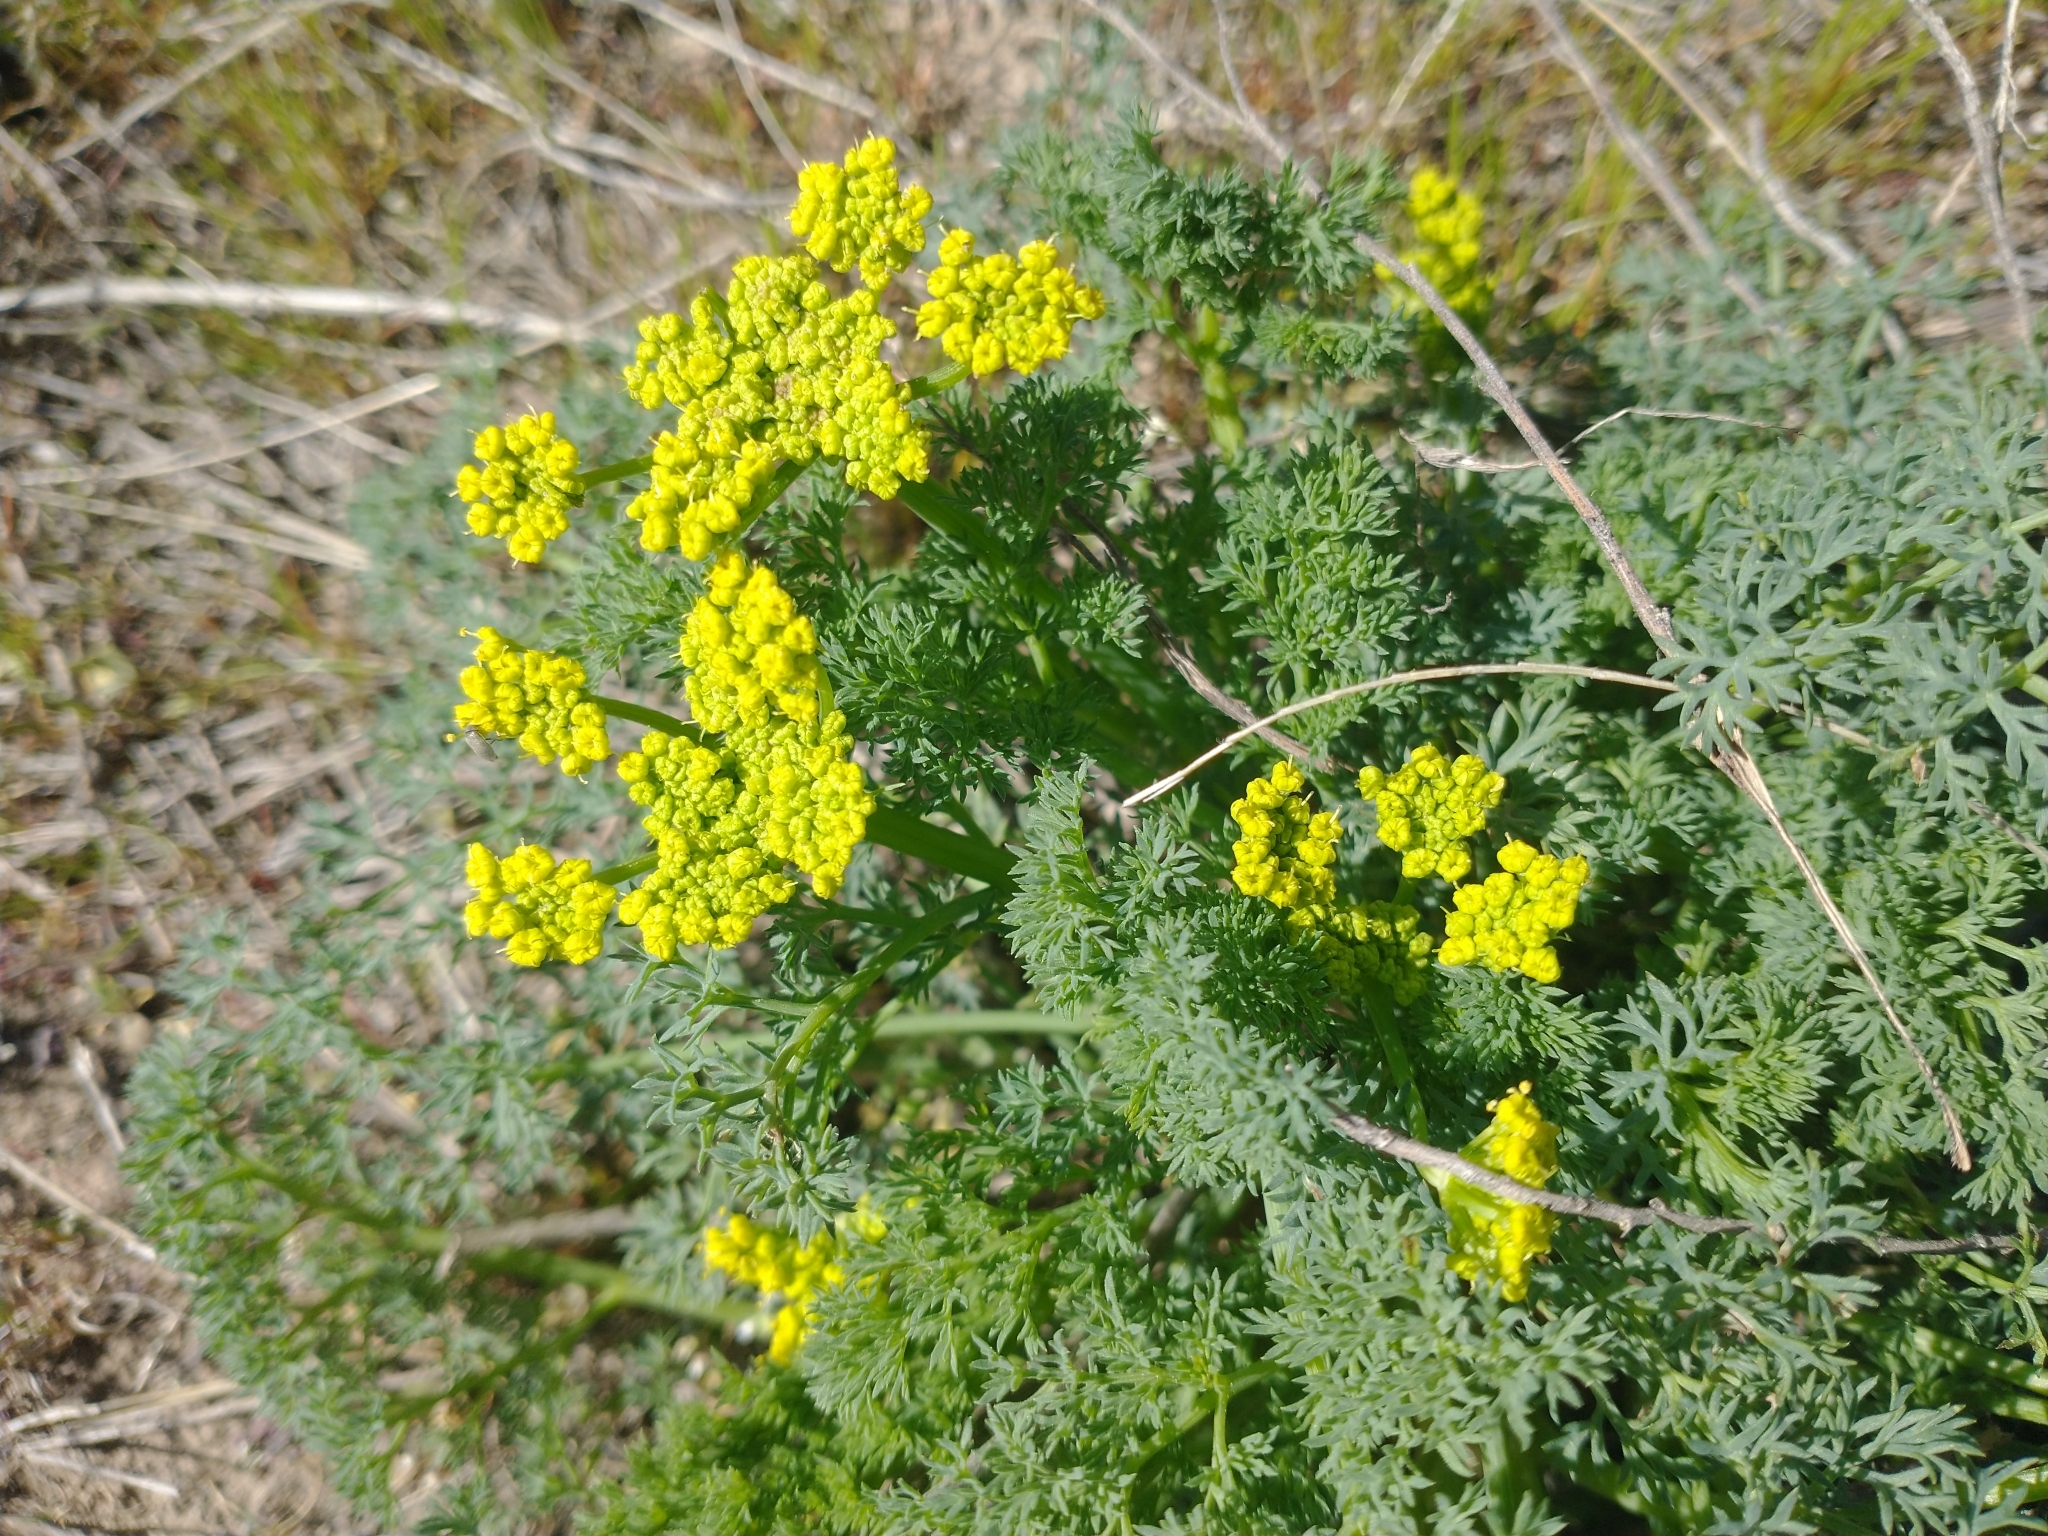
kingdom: Plantae
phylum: Tracheophyta
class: Magnoliopsida
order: Apiales
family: Apiaceae
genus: Lomatium
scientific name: Lomatium papilioniferum
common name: Butterfly lomatium
